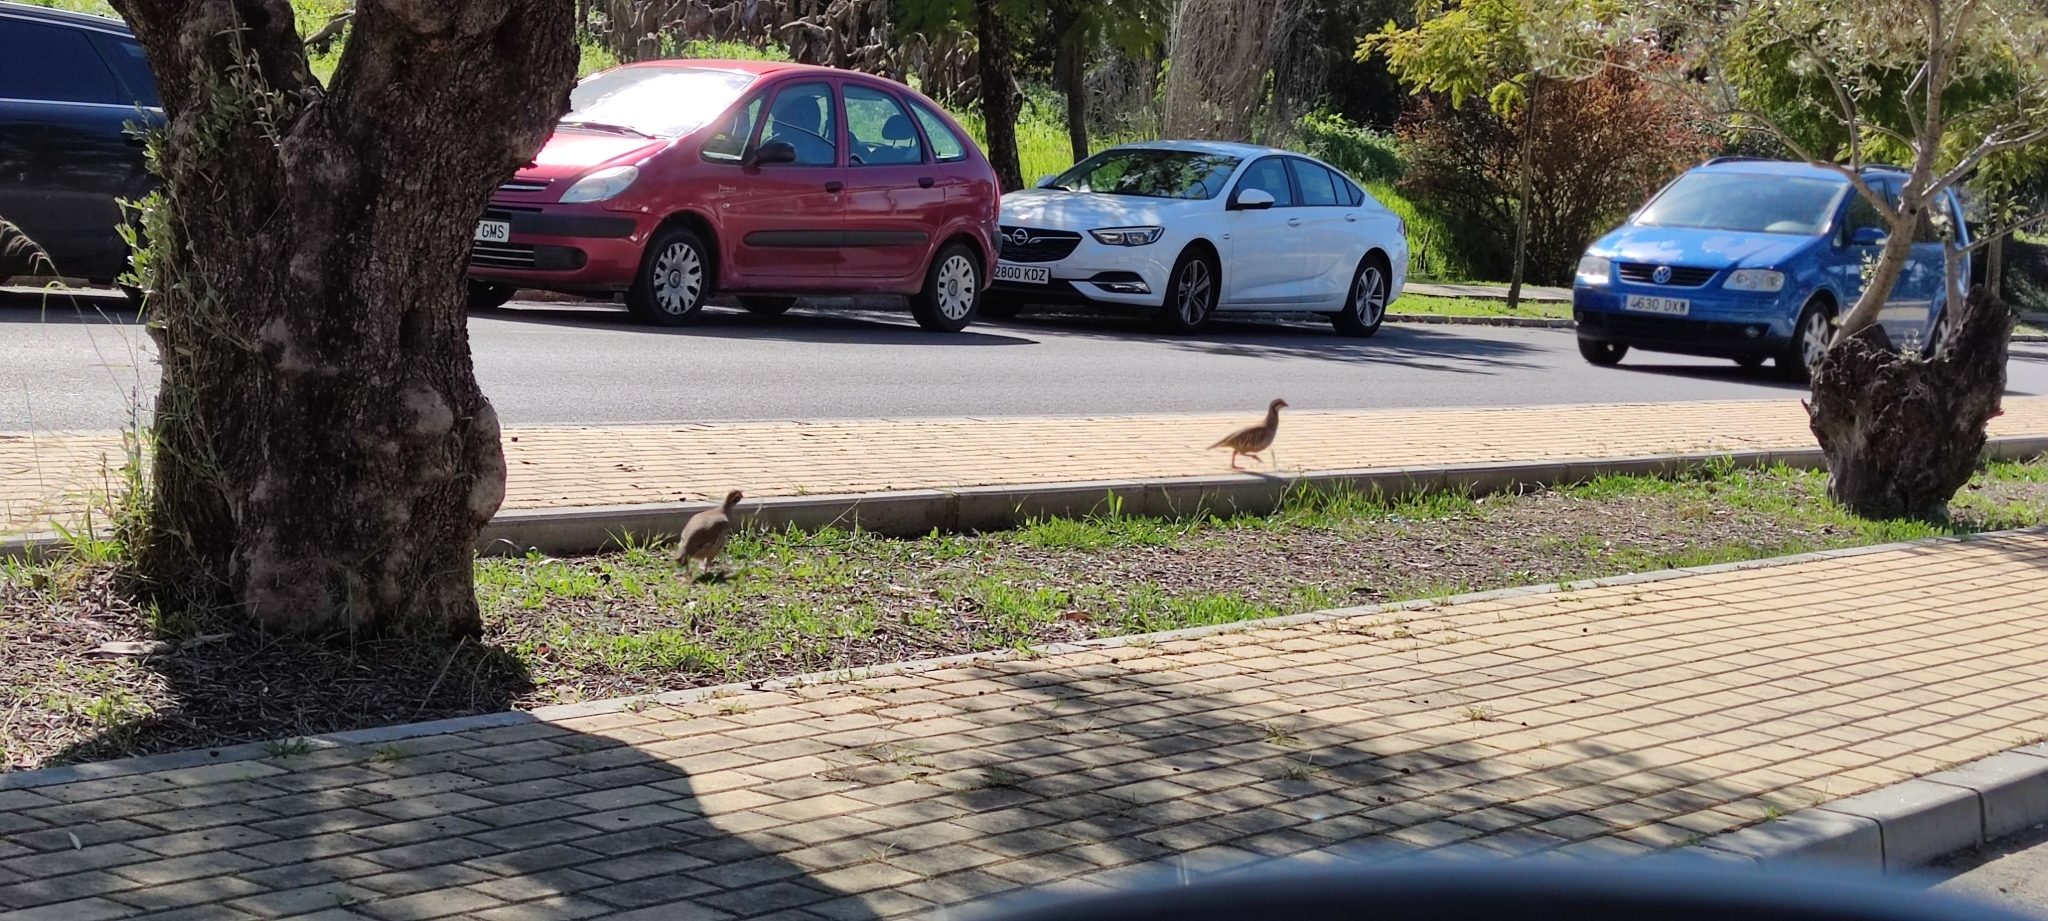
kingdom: Animalia
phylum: Chordata
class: Aves
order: Galliformes
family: Phasianidae
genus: Alectoris
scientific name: Alectoris rufa
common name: Red-legged partridge
